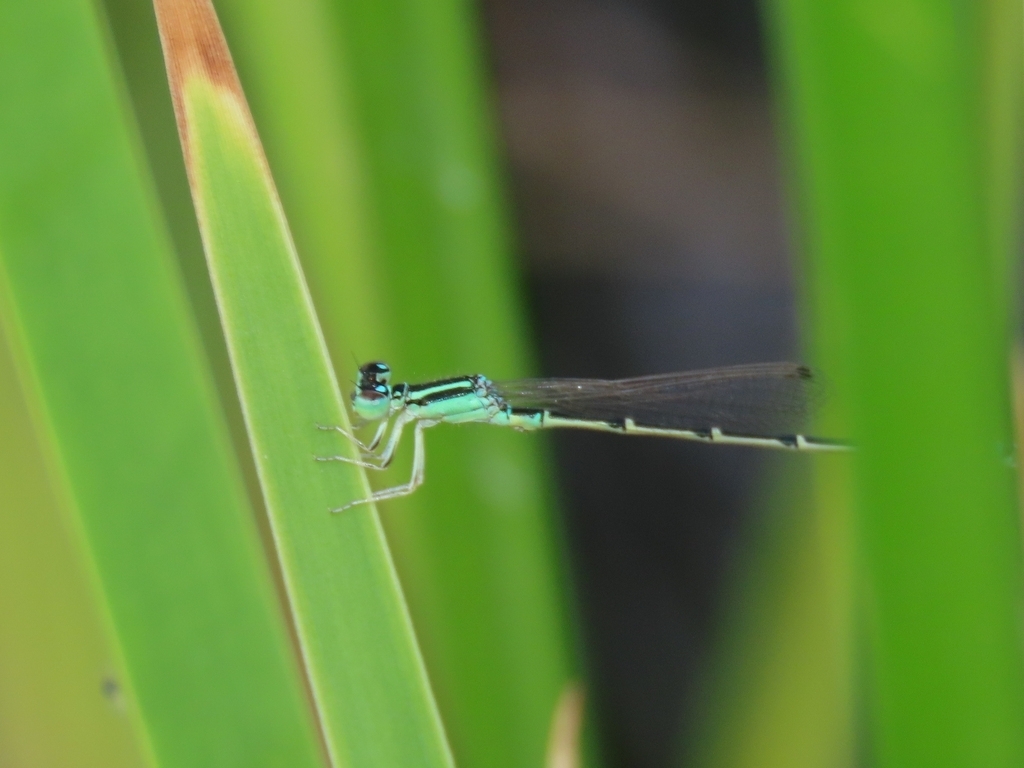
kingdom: Animalia
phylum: Arthropoda
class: Insecta
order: Odonata
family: Coenagrionidae
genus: Ischnura
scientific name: Ischnura demorsa
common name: Mexican forktail
